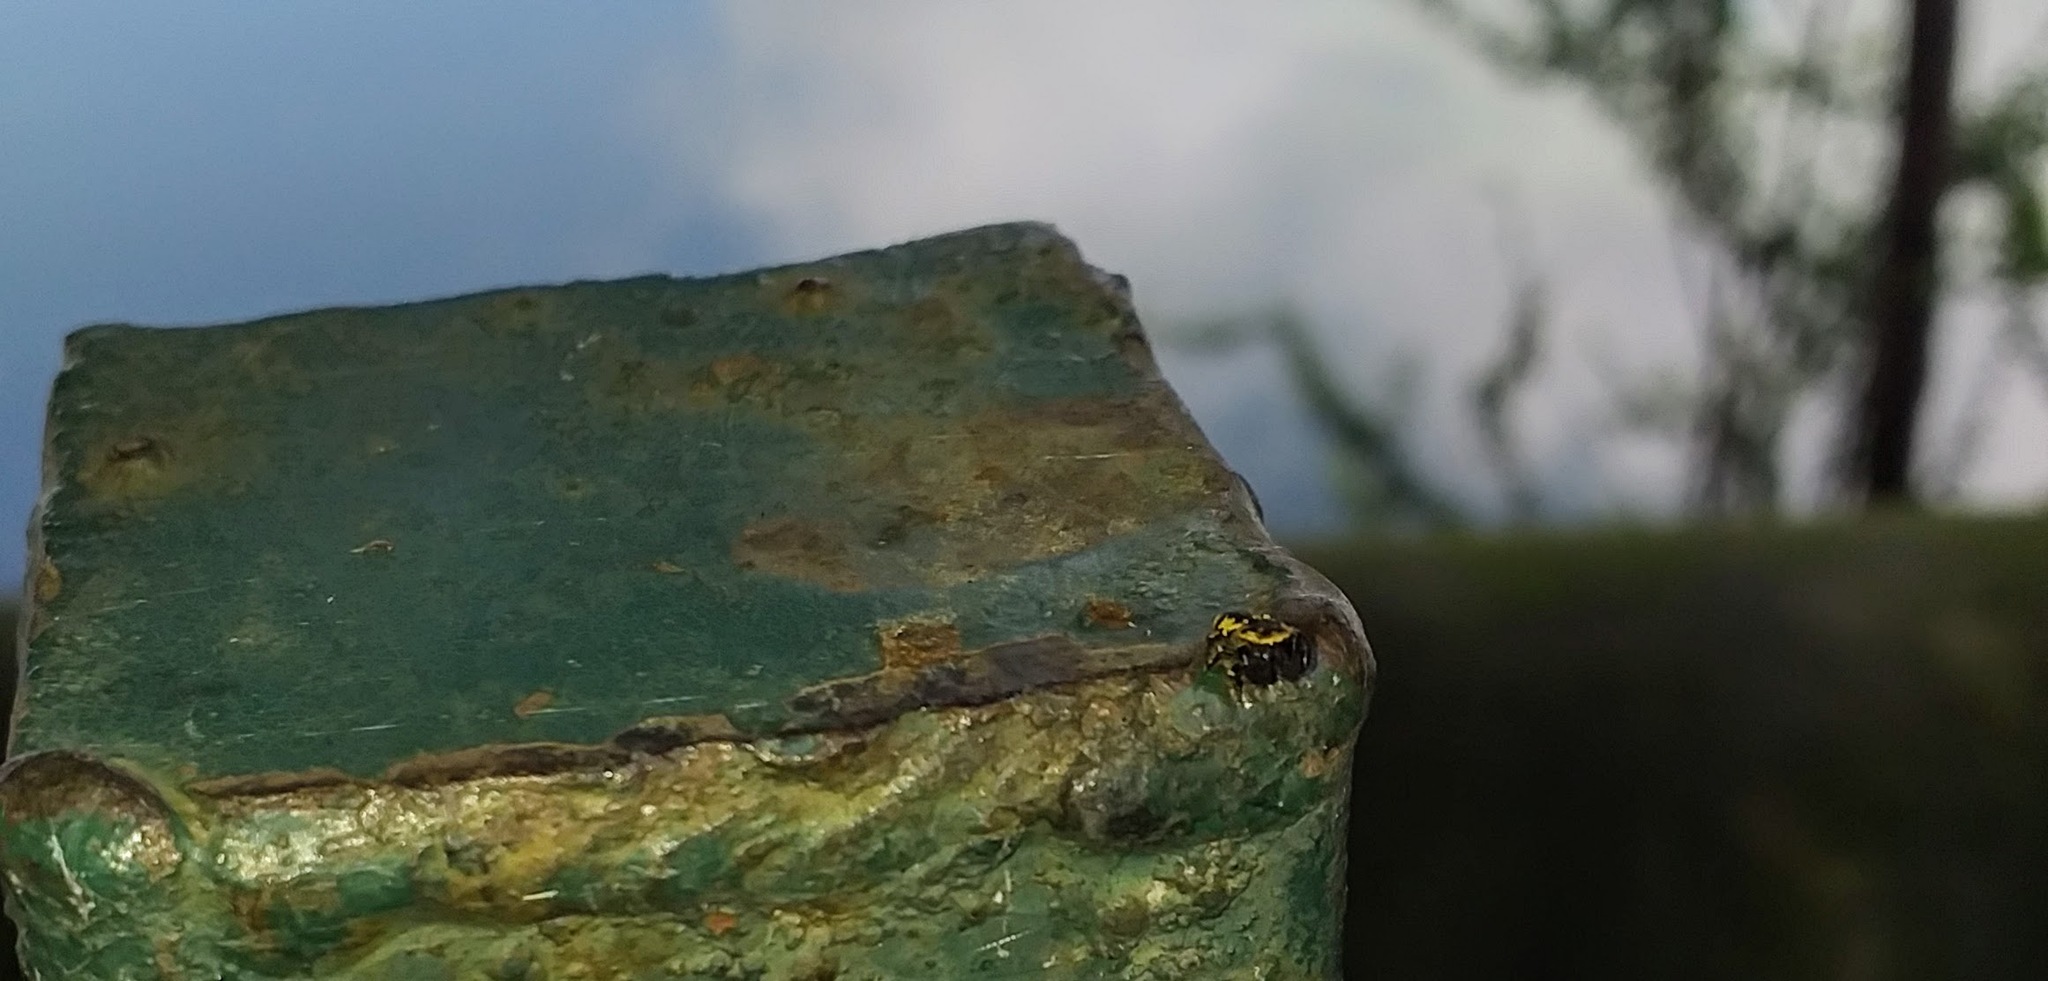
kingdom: Animalia
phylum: Arthropoda
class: Arachnida
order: Araneae
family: Salticidae
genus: Rhene
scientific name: Rhene flavicomans
